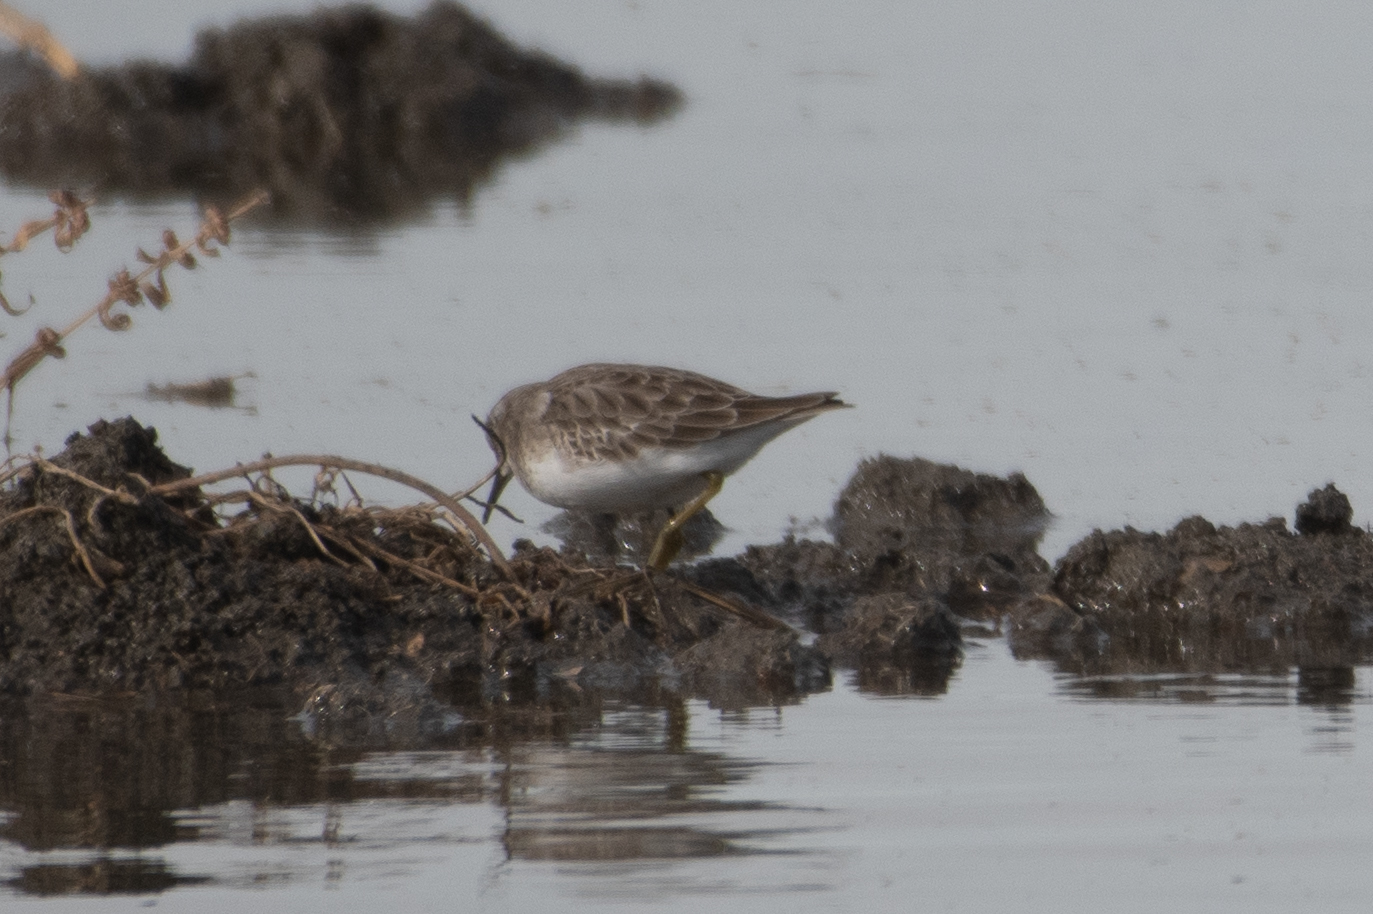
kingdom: Animalia
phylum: Chordata
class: Aves
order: Charadriiformes
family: Scolopacidae
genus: Calidris
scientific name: Calidris minutilla
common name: Least sandpiper
